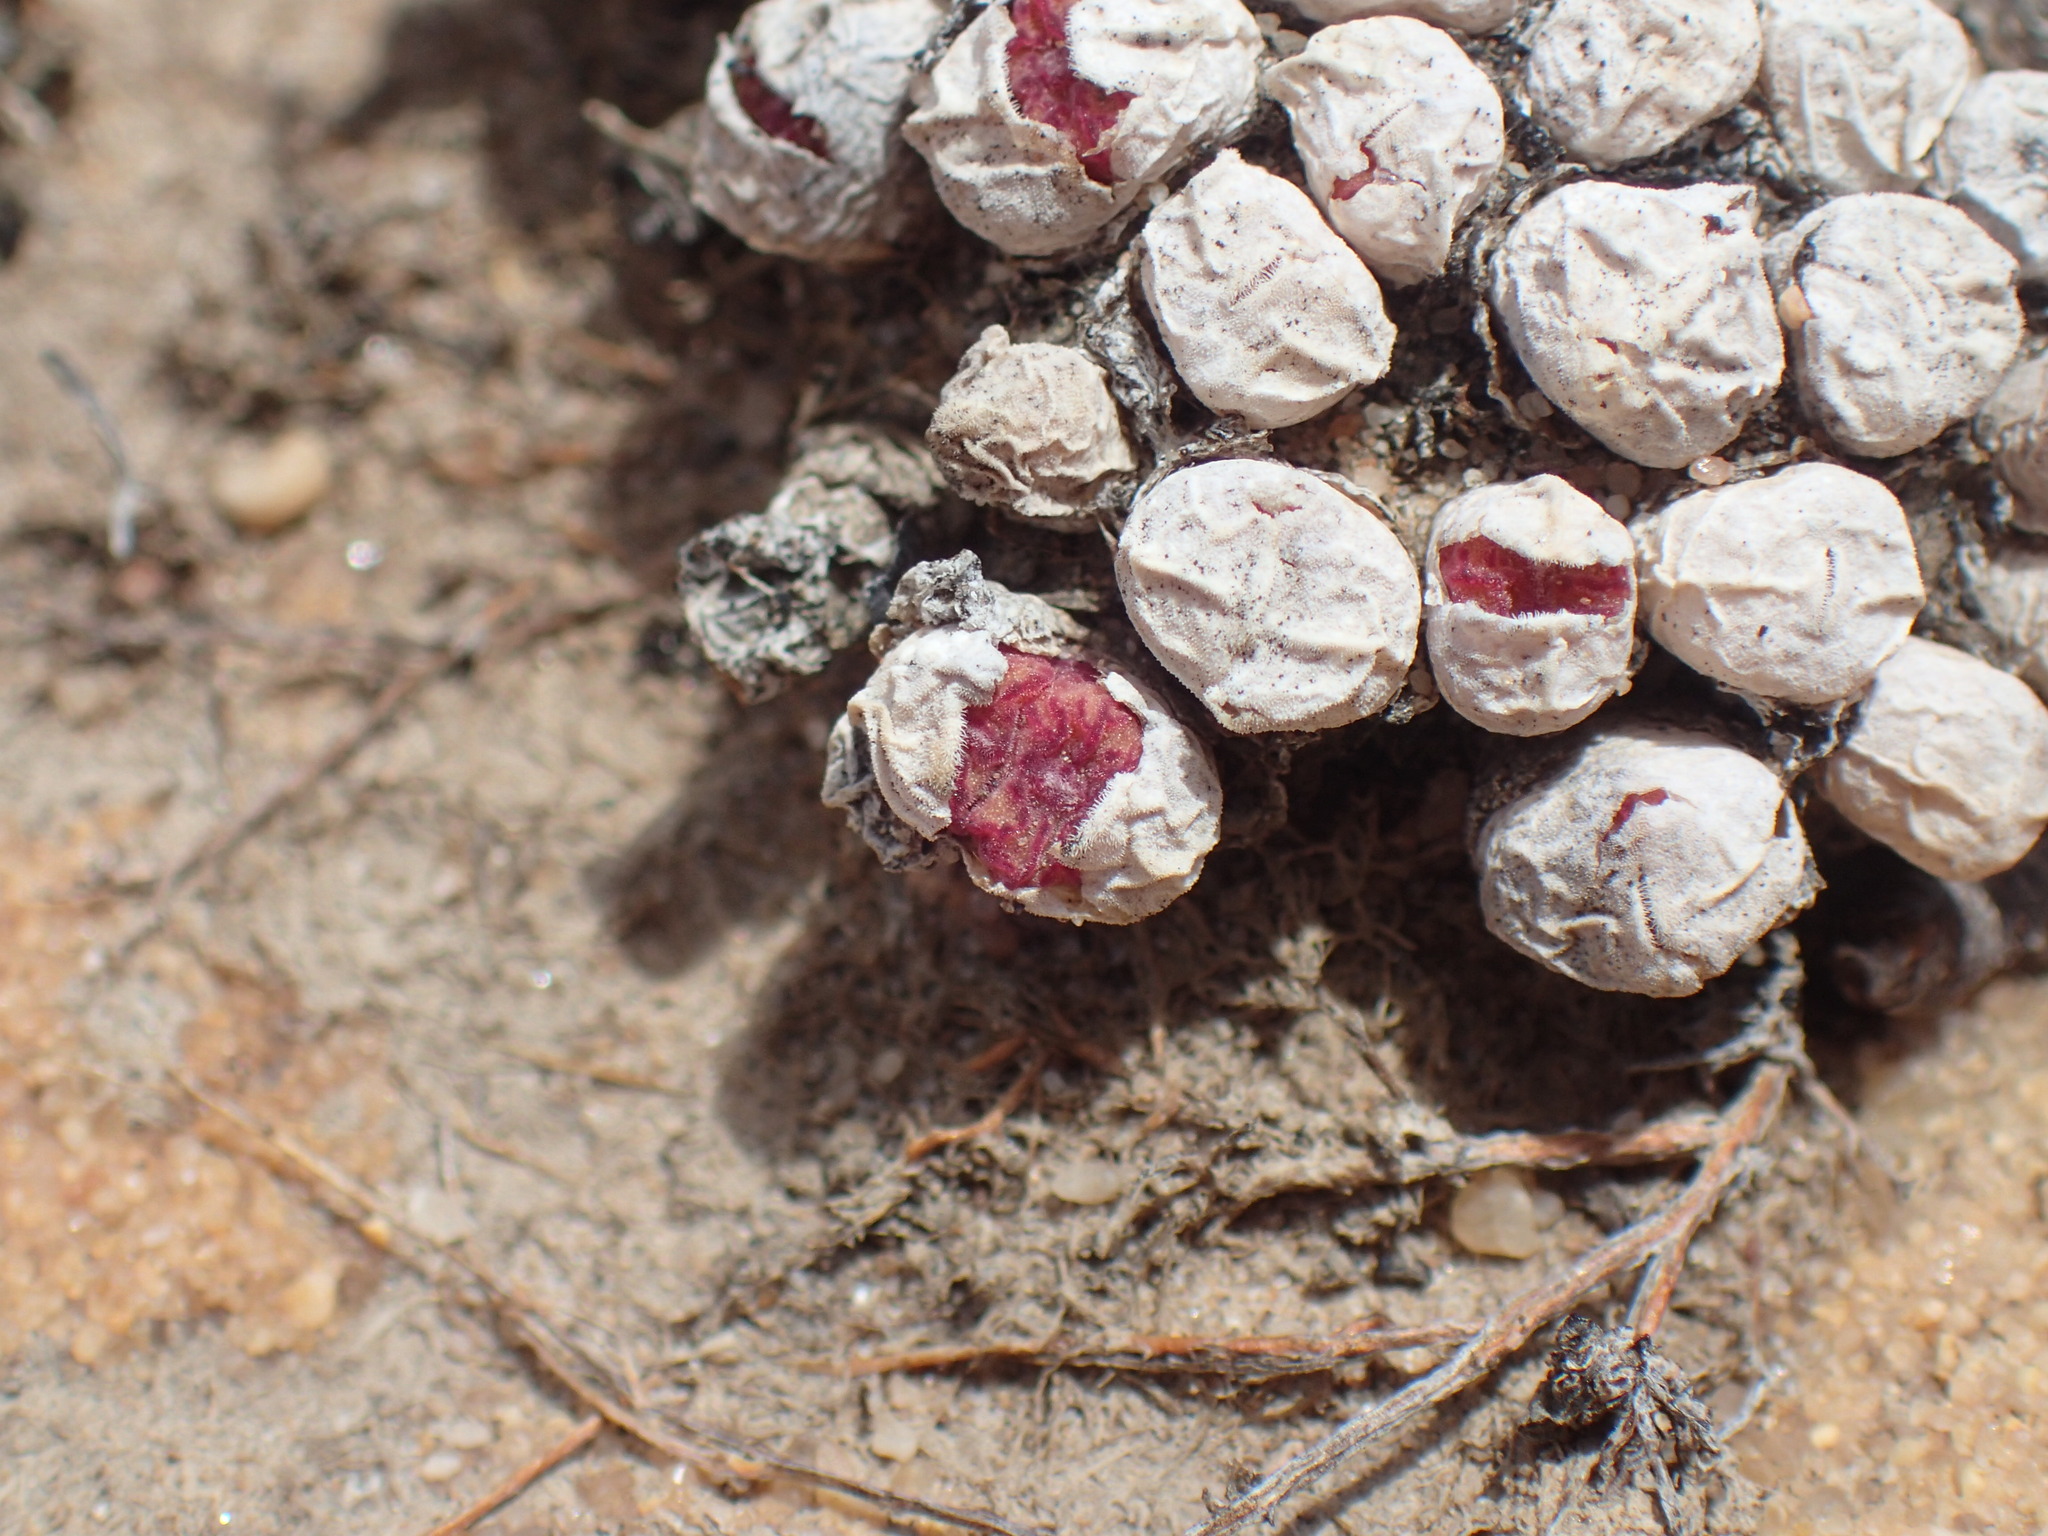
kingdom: Plantae
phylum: Tracheophyta
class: Magnoliopsida
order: Caryophyllales
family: Aizoaceae
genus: Conophytum
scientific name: Conophytum obcordellum
